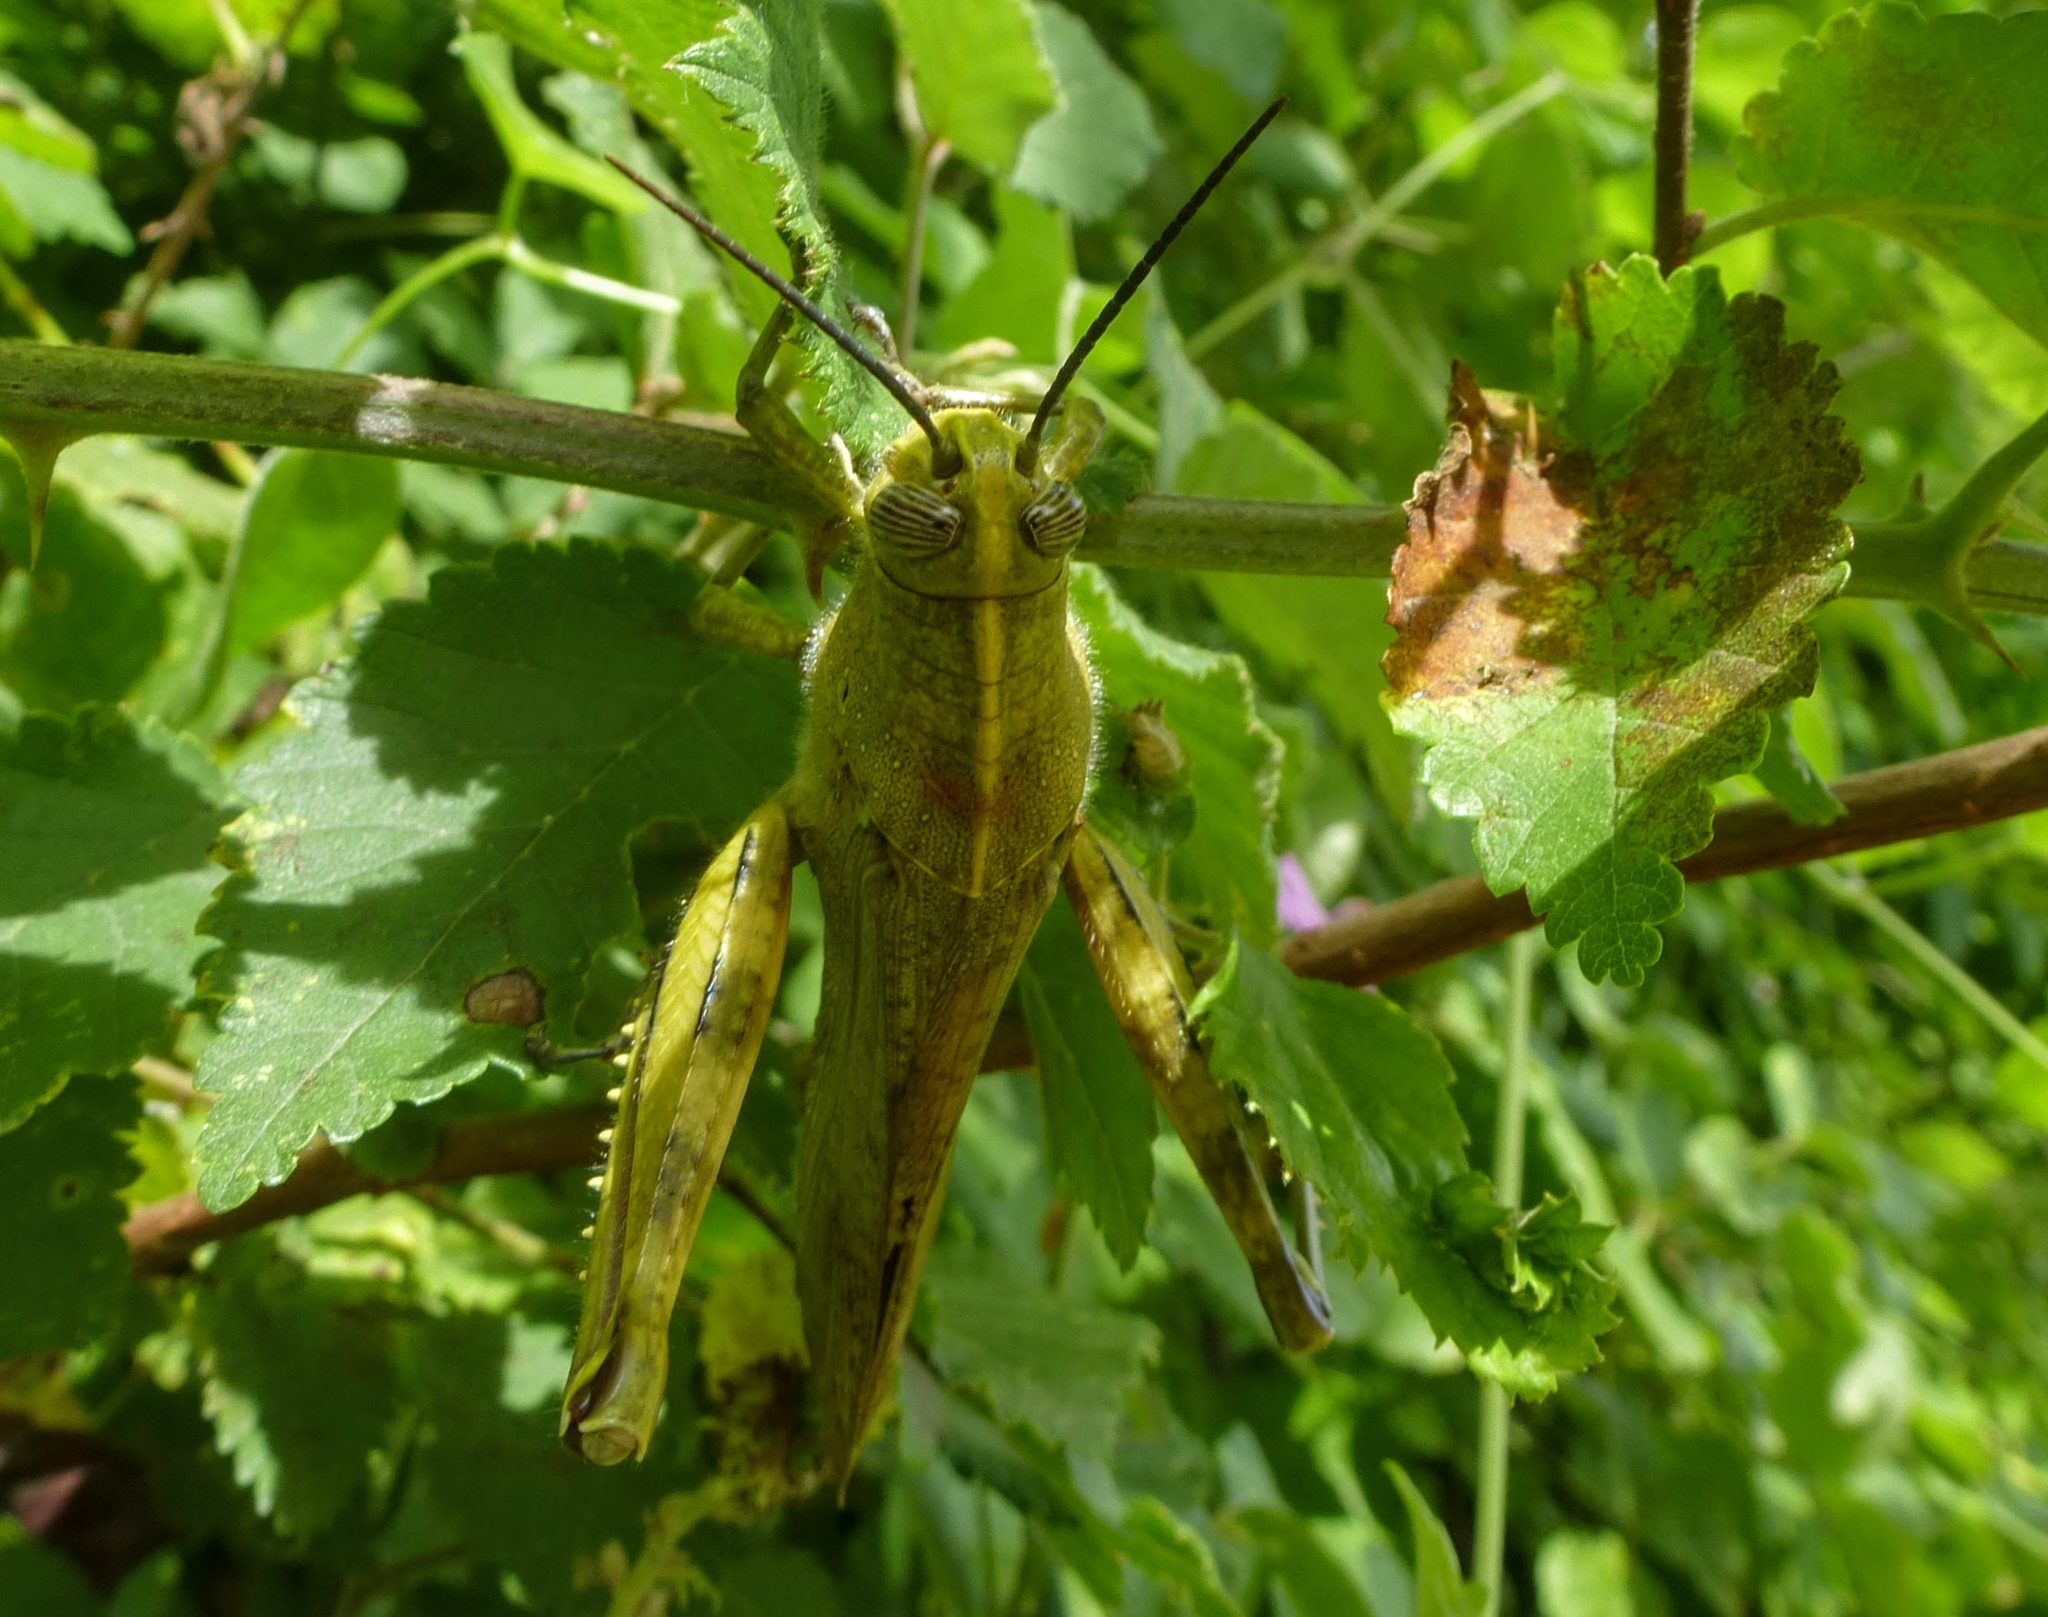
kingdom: Animalia
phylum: Arthropoda
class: Insecta
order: Orthoptera
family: Acrididae
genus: Anacridium
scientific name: Anacridium aegyptium
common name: Egyptian grasshopper
